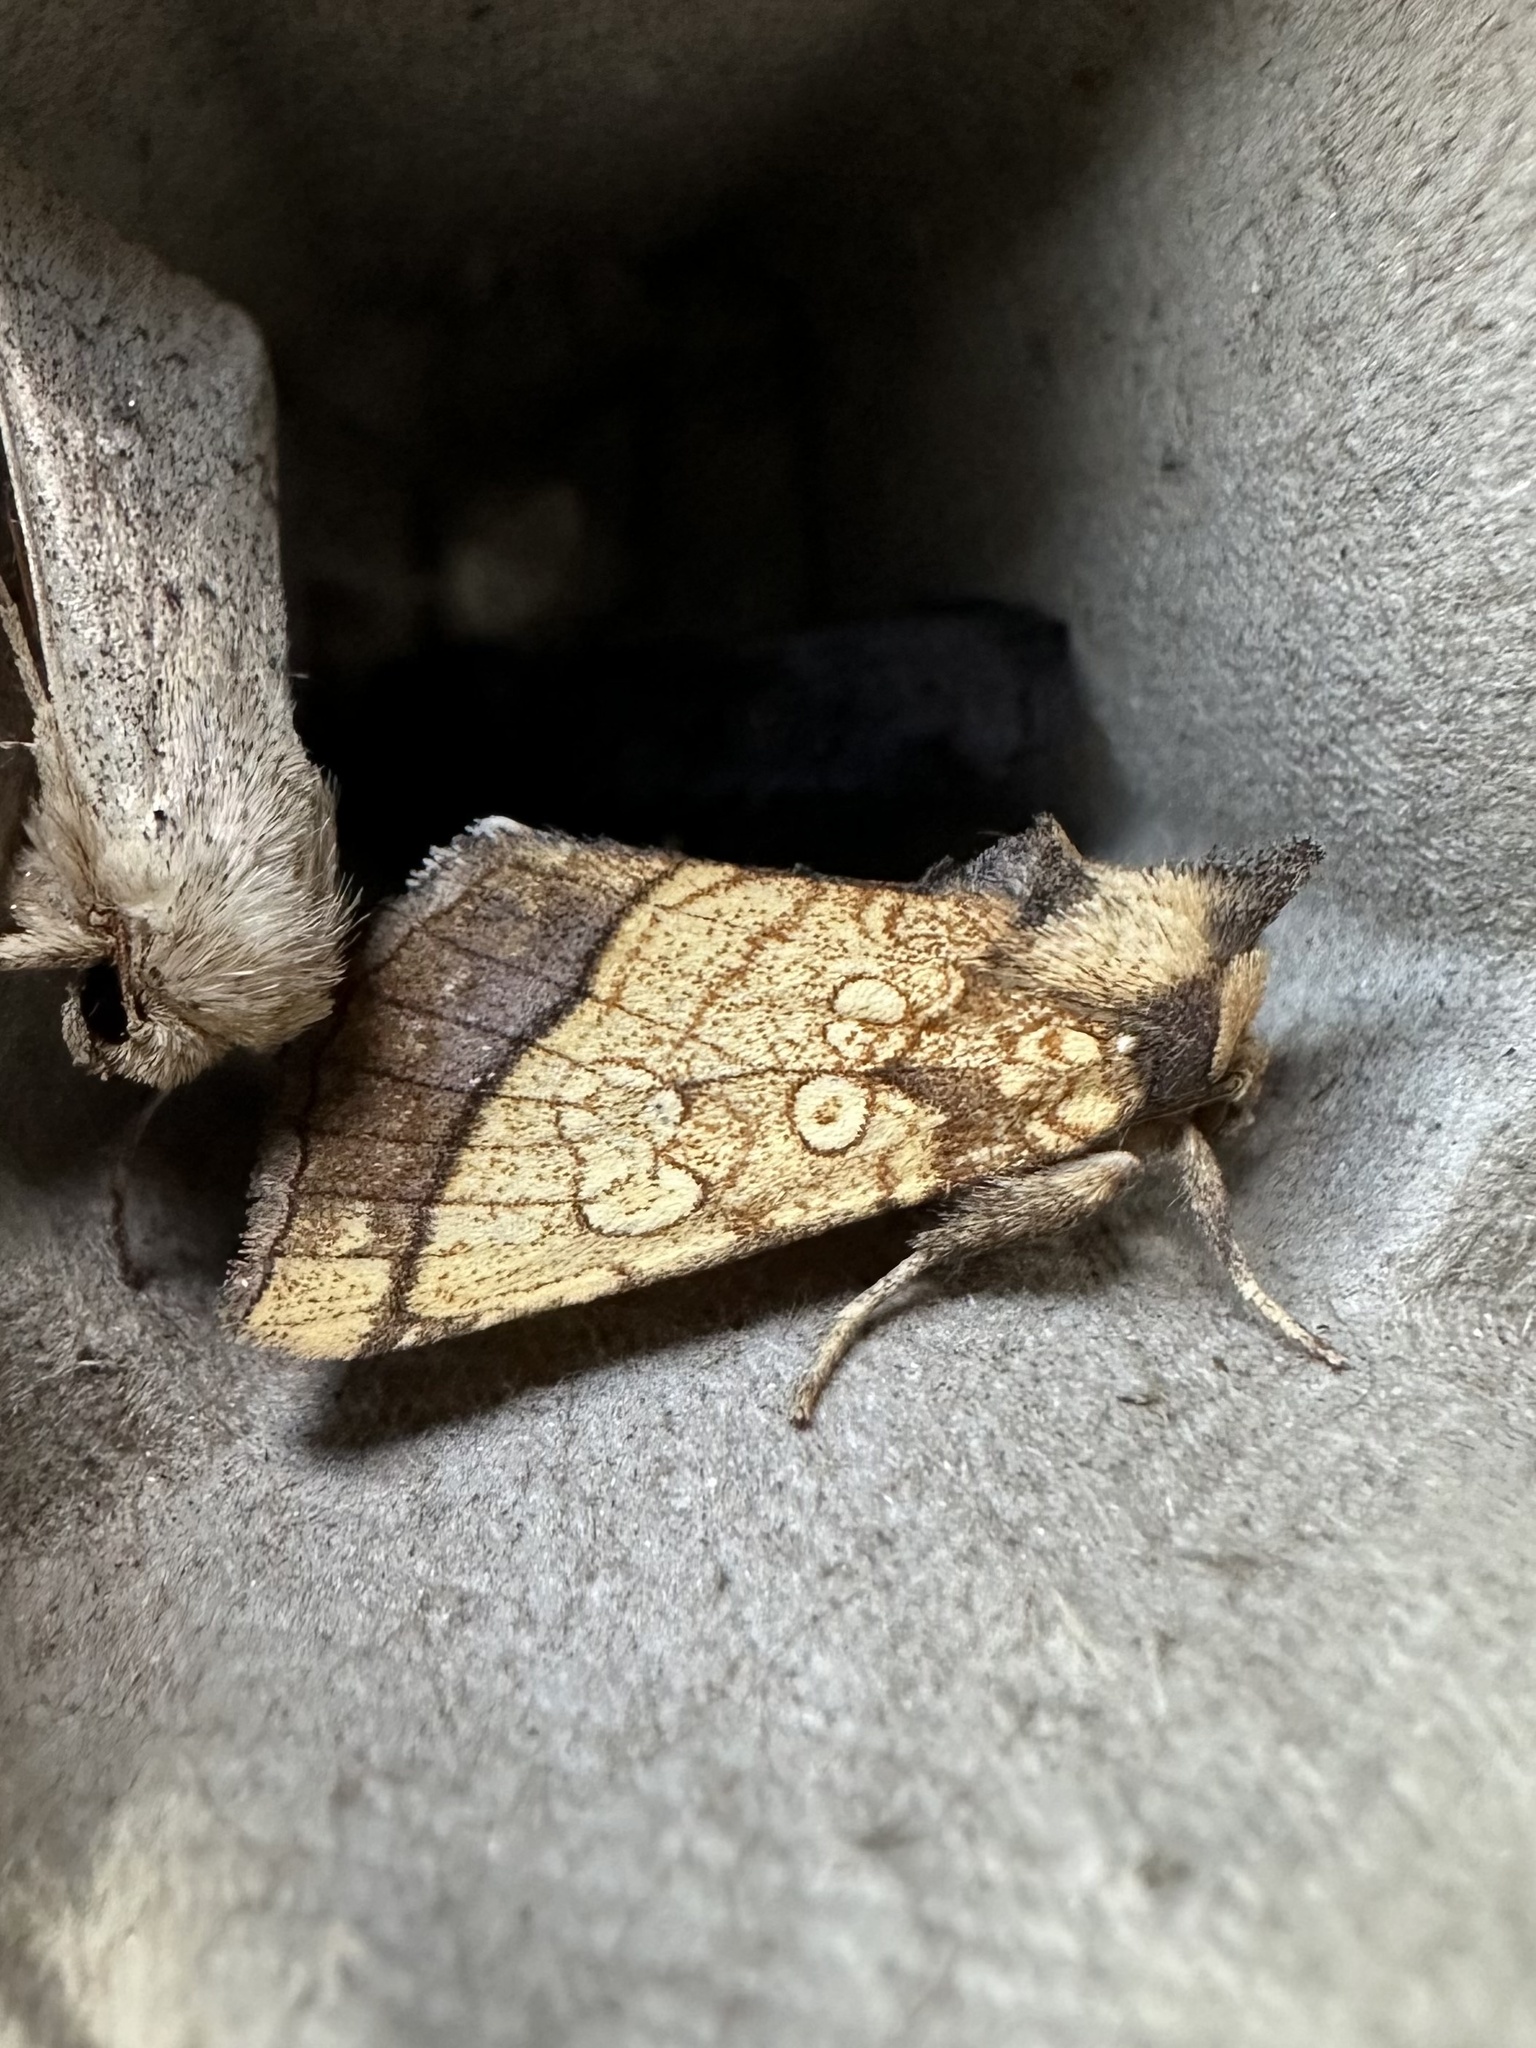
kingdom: Animalia
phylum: Arthropoda
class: Insecta
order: Lepidoptera
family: Noctuidae
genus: Papaipema
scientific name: Papaipema rigida
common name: Rigid sunflower borer moth
